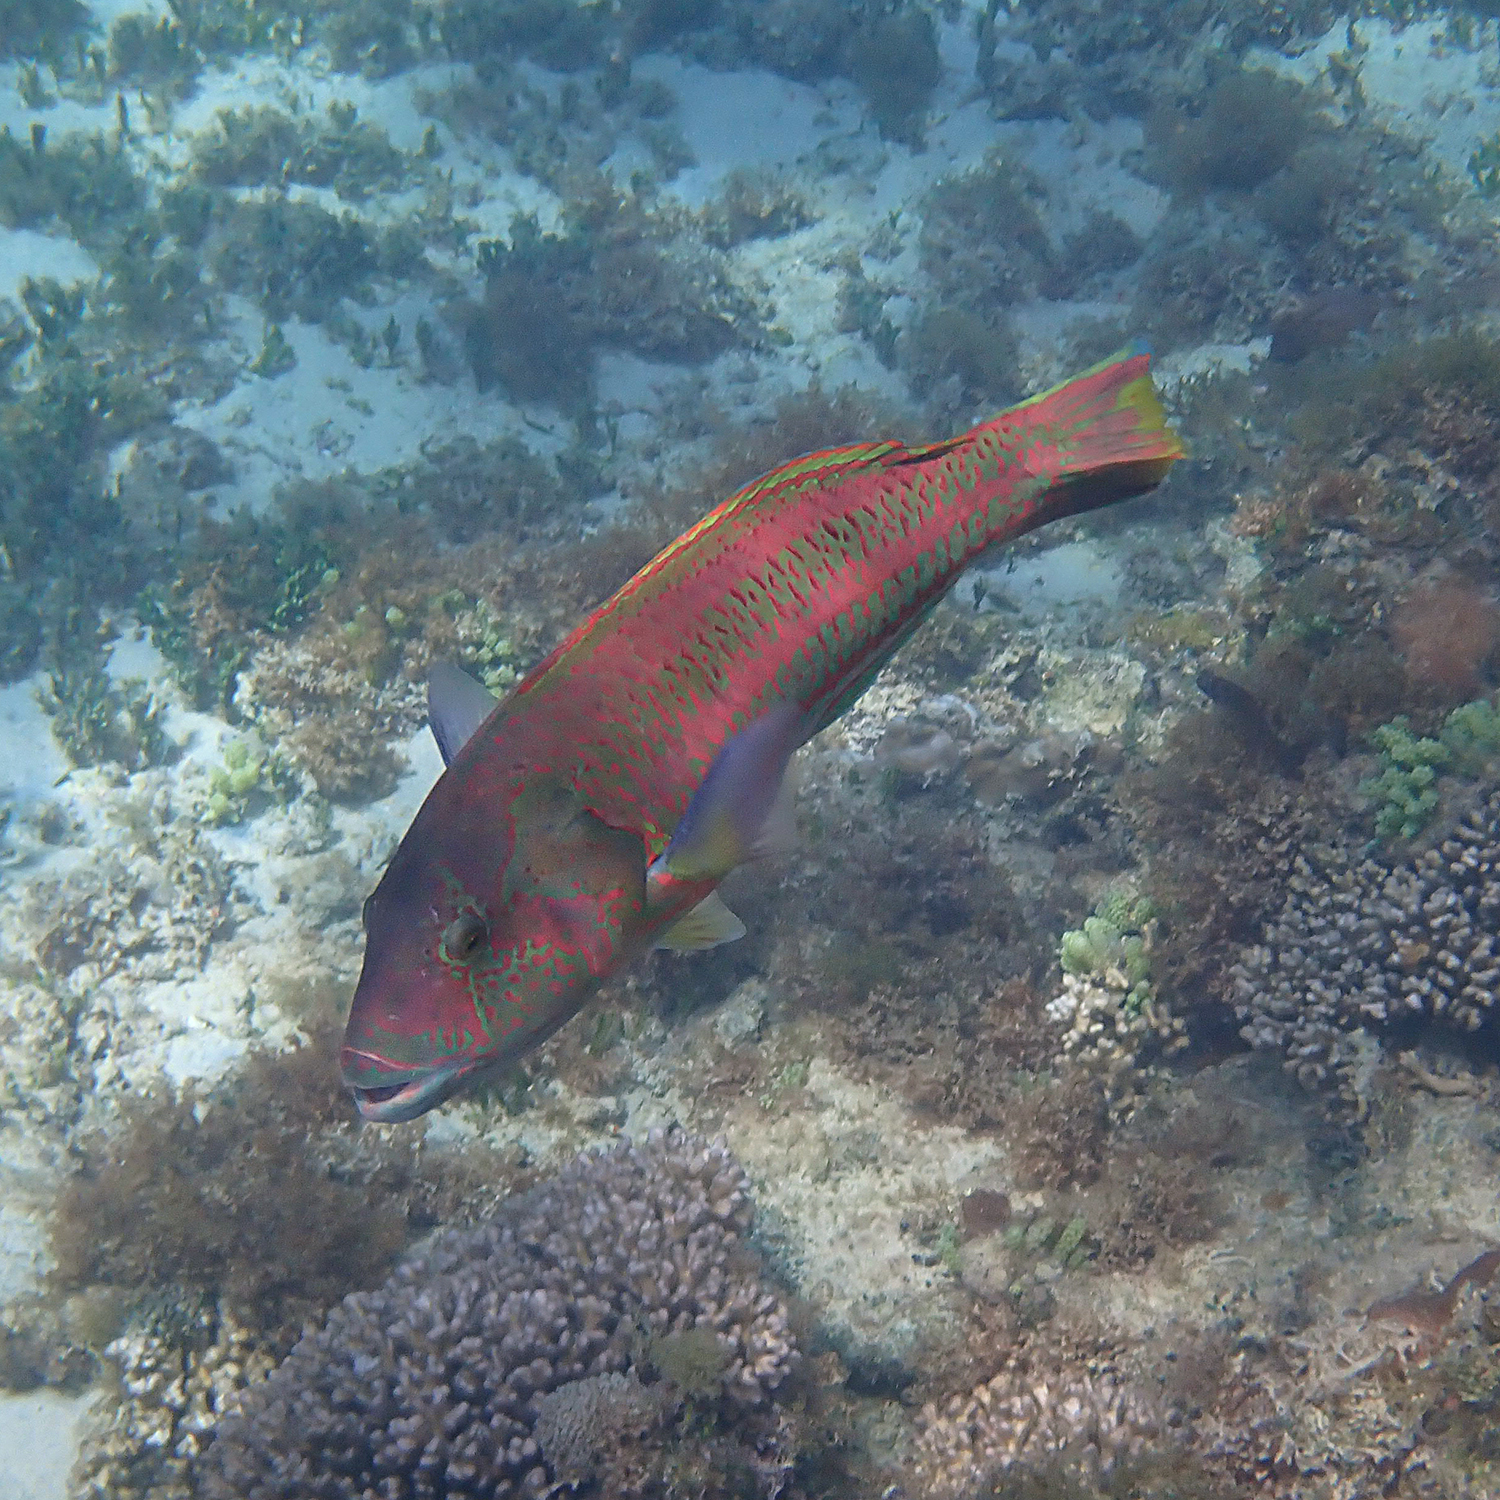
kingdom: Animalia
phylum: Chordata
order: Perciformes
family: Labridae
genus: Thalassoma
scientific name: Thalassoma purpureum
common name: Parrotfish
